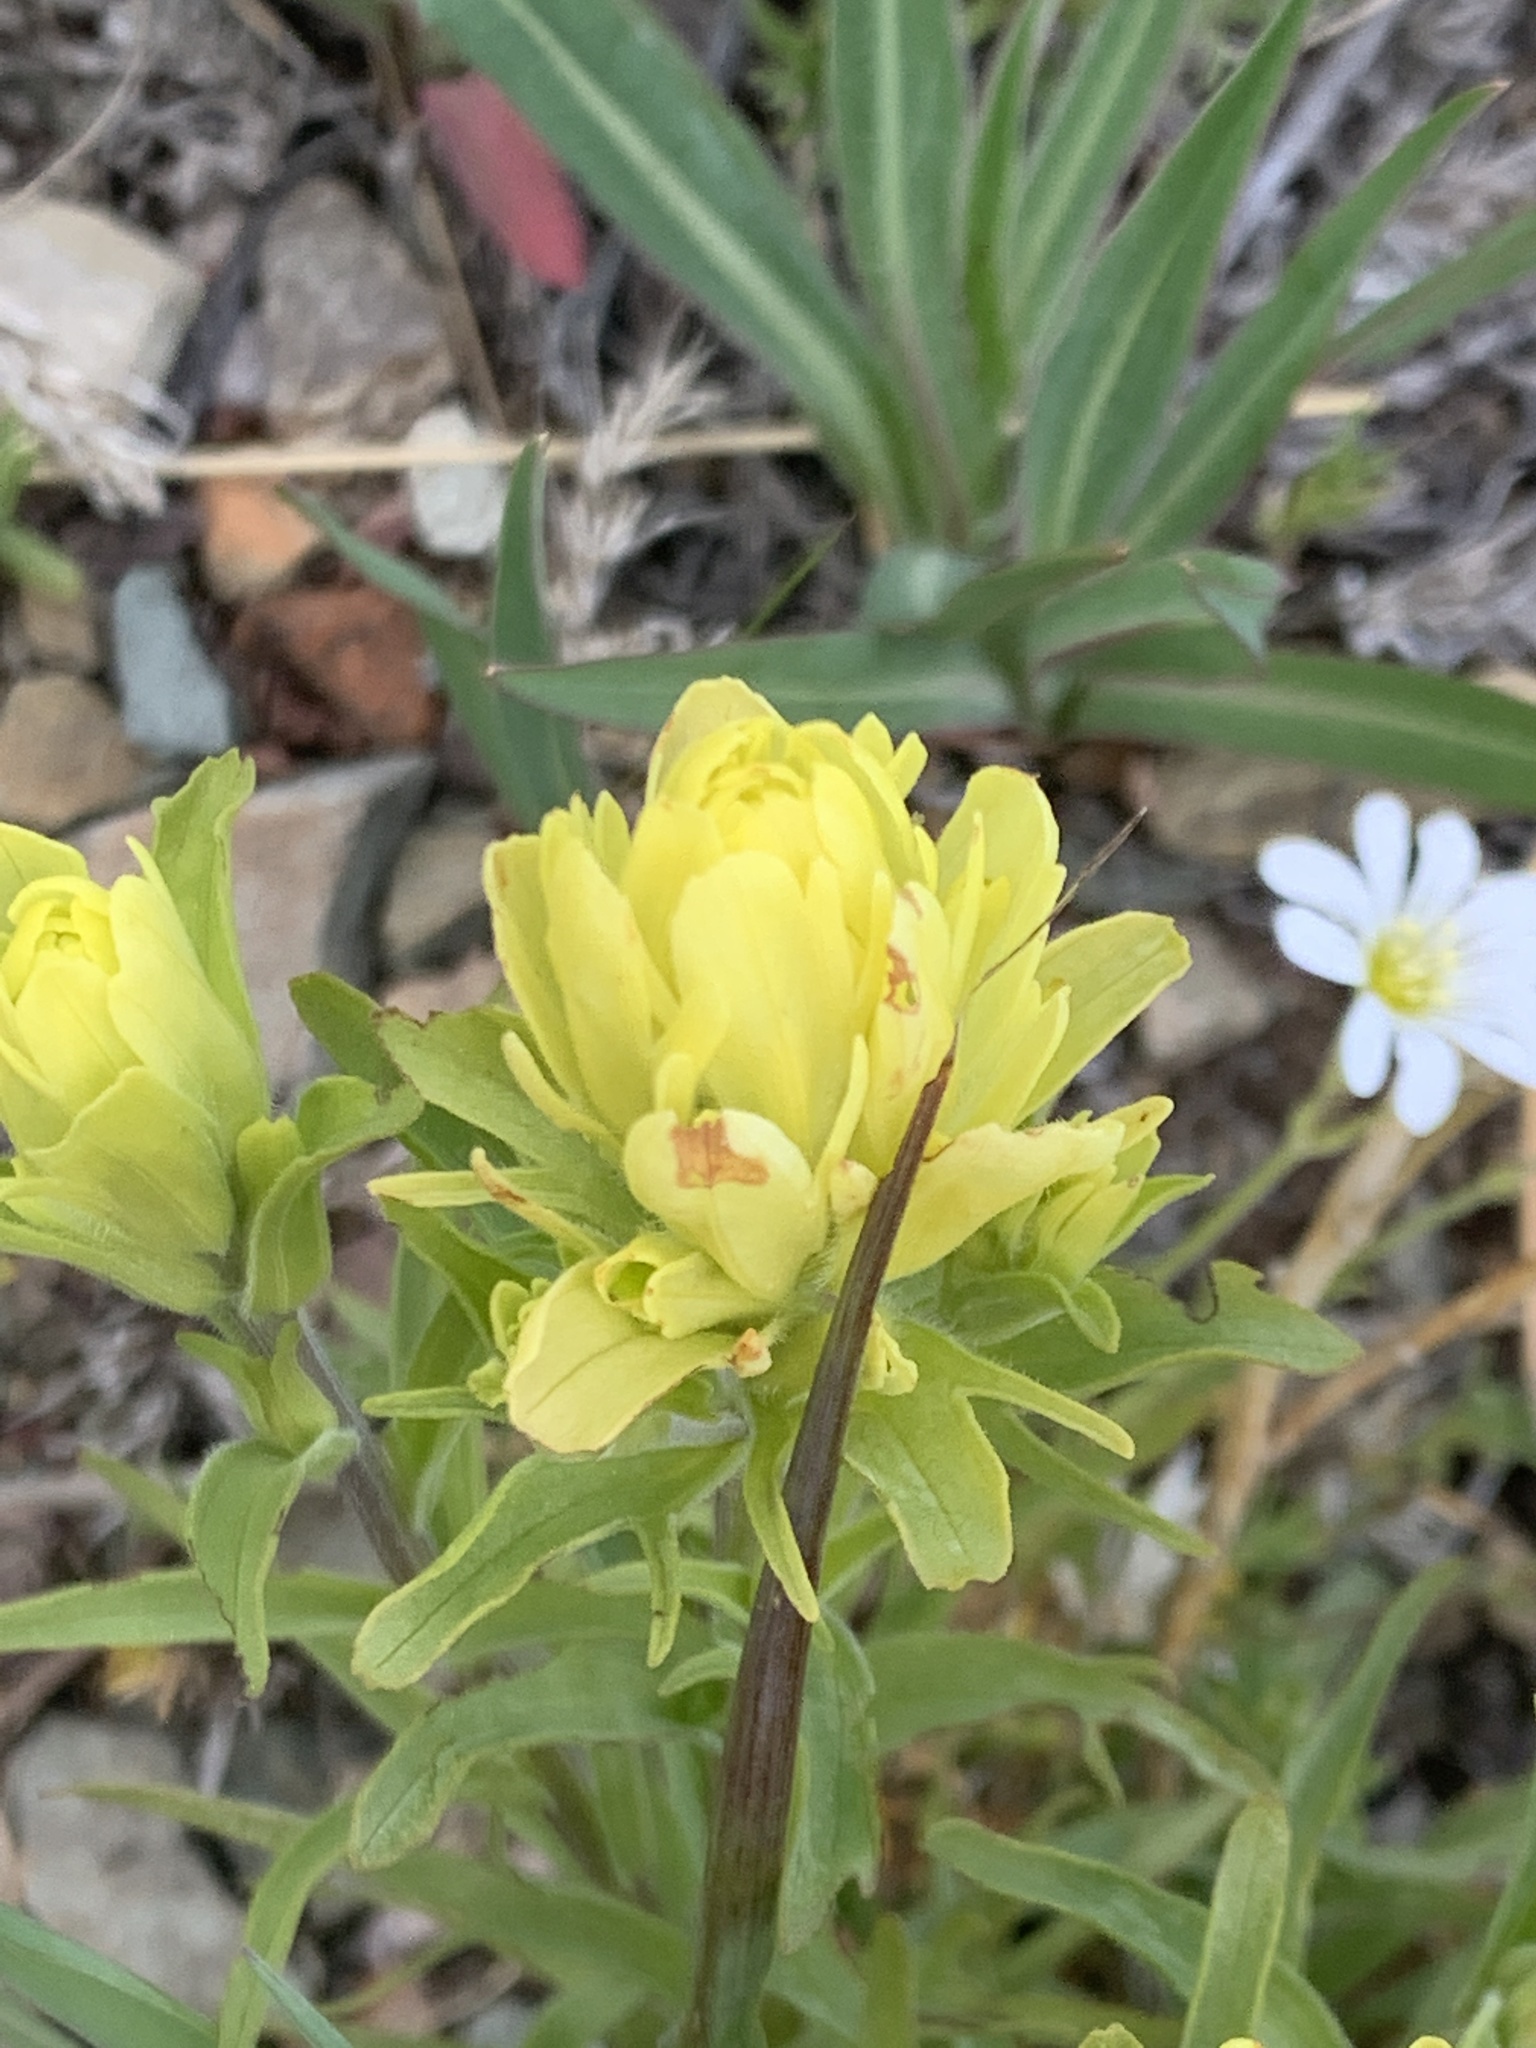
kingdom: Plantae
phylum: Tracheophyta
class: Magnoliopsida
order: Lamiales
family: Orobanchaceae
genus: Castilleja
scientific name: Castilleja occidentalis
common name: Western paintbrush
